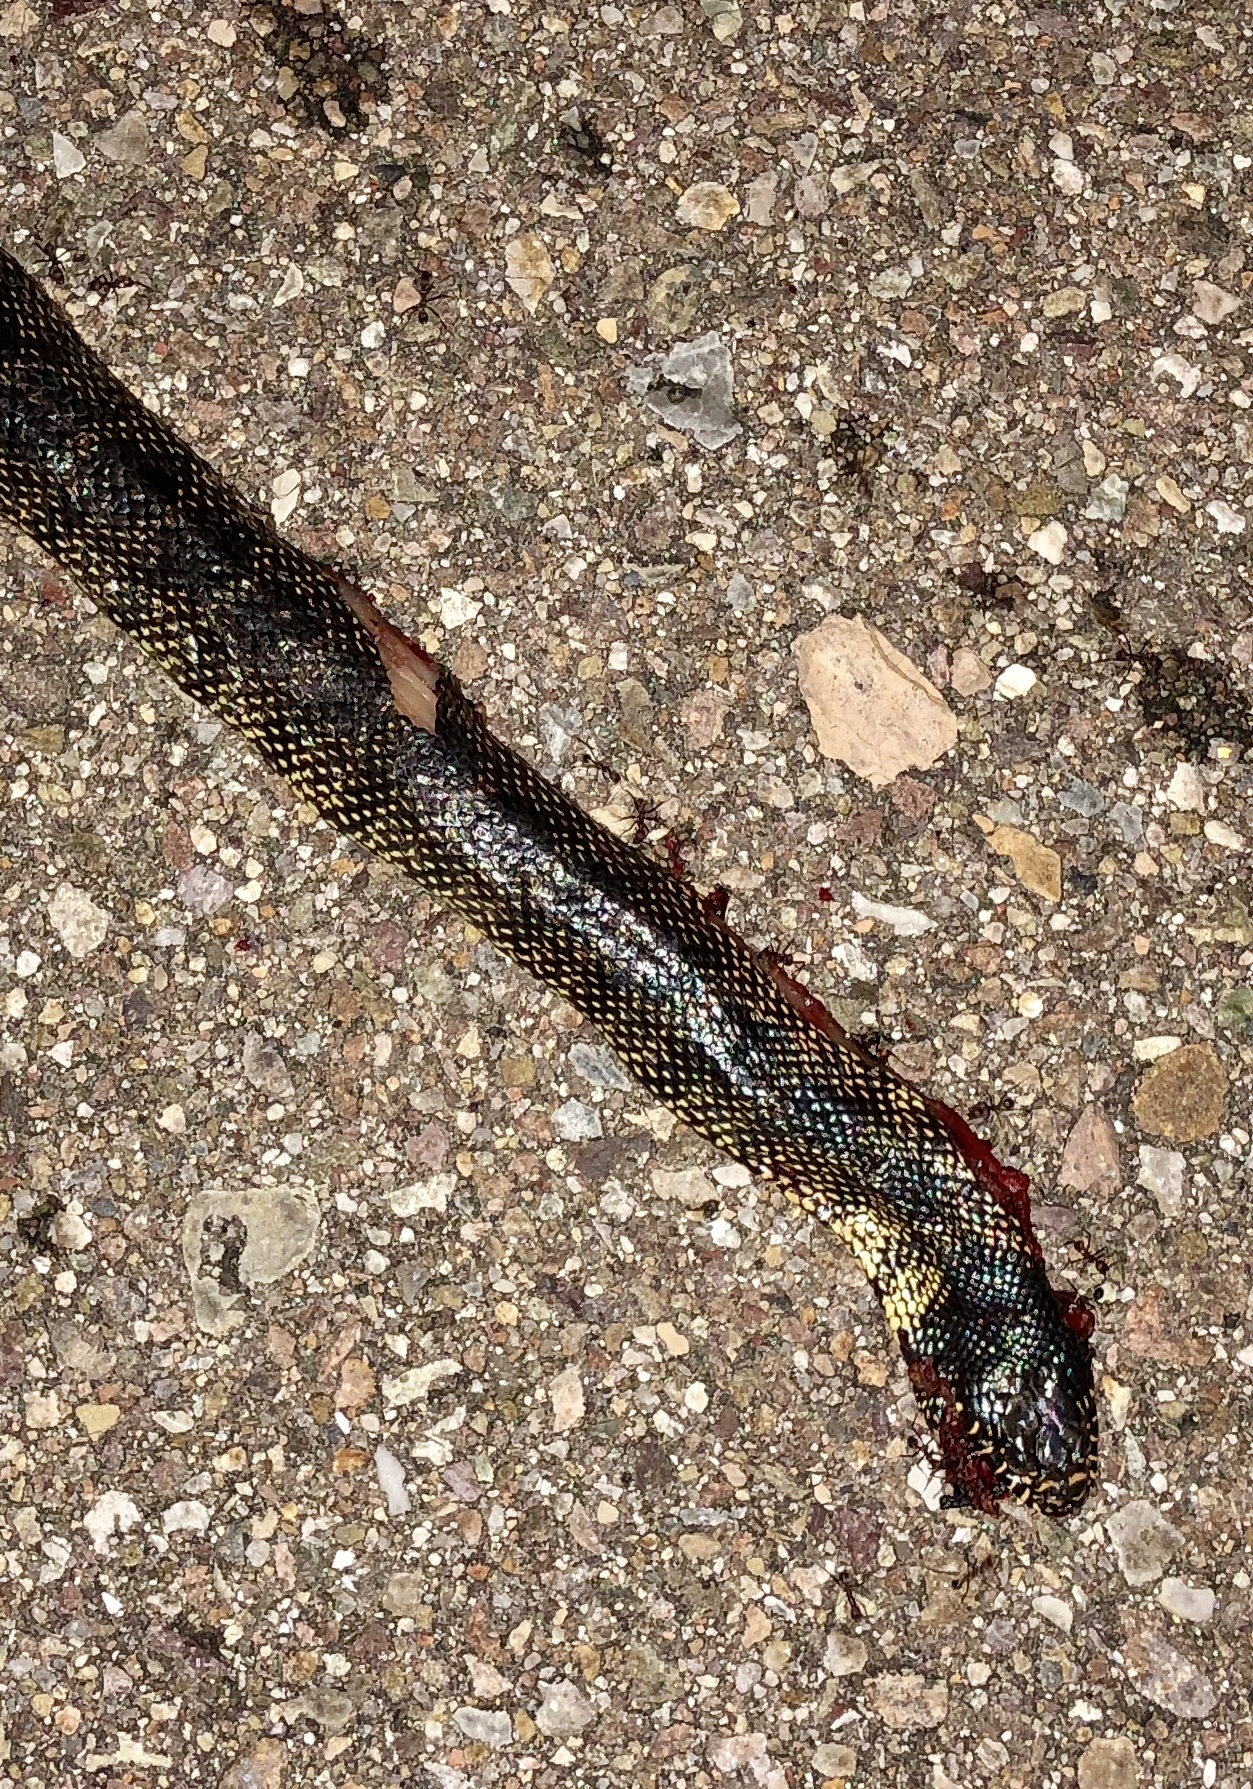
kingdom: Animalia
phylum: Chordata
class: Squamata
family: Colubridae
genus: Lampropeltis
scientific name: Lampropeltis splendida
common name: Desert kingsnake
